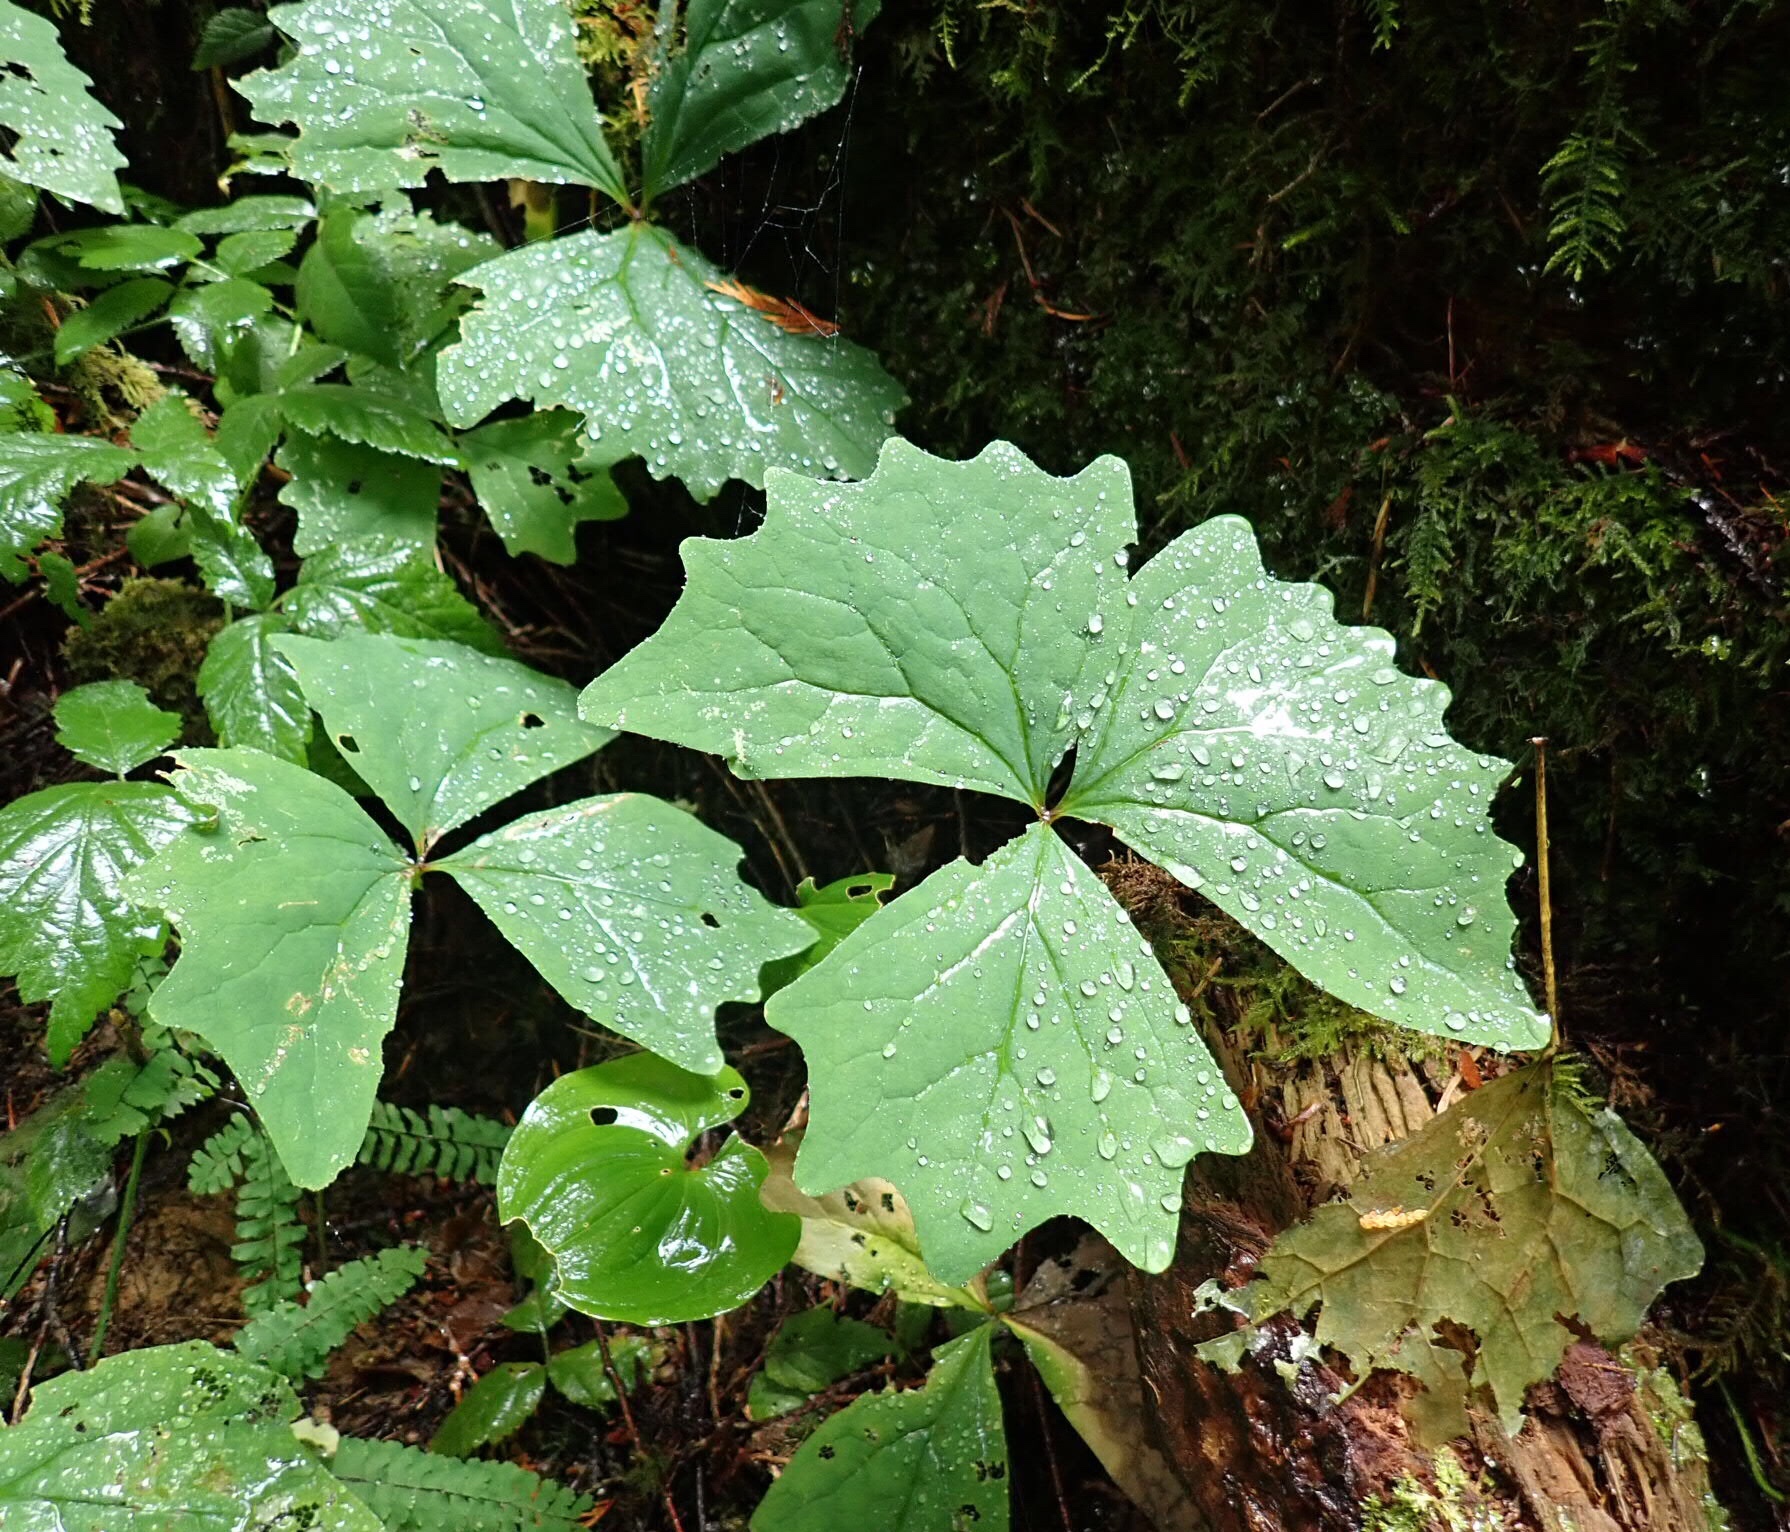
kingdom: Plantae
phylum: Tracheophyta
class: Magnoliopsida
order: Ranunculales
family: Berberidaceae
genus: Achlys
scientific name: Achlys triphylla
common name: Vanilla-leaf
